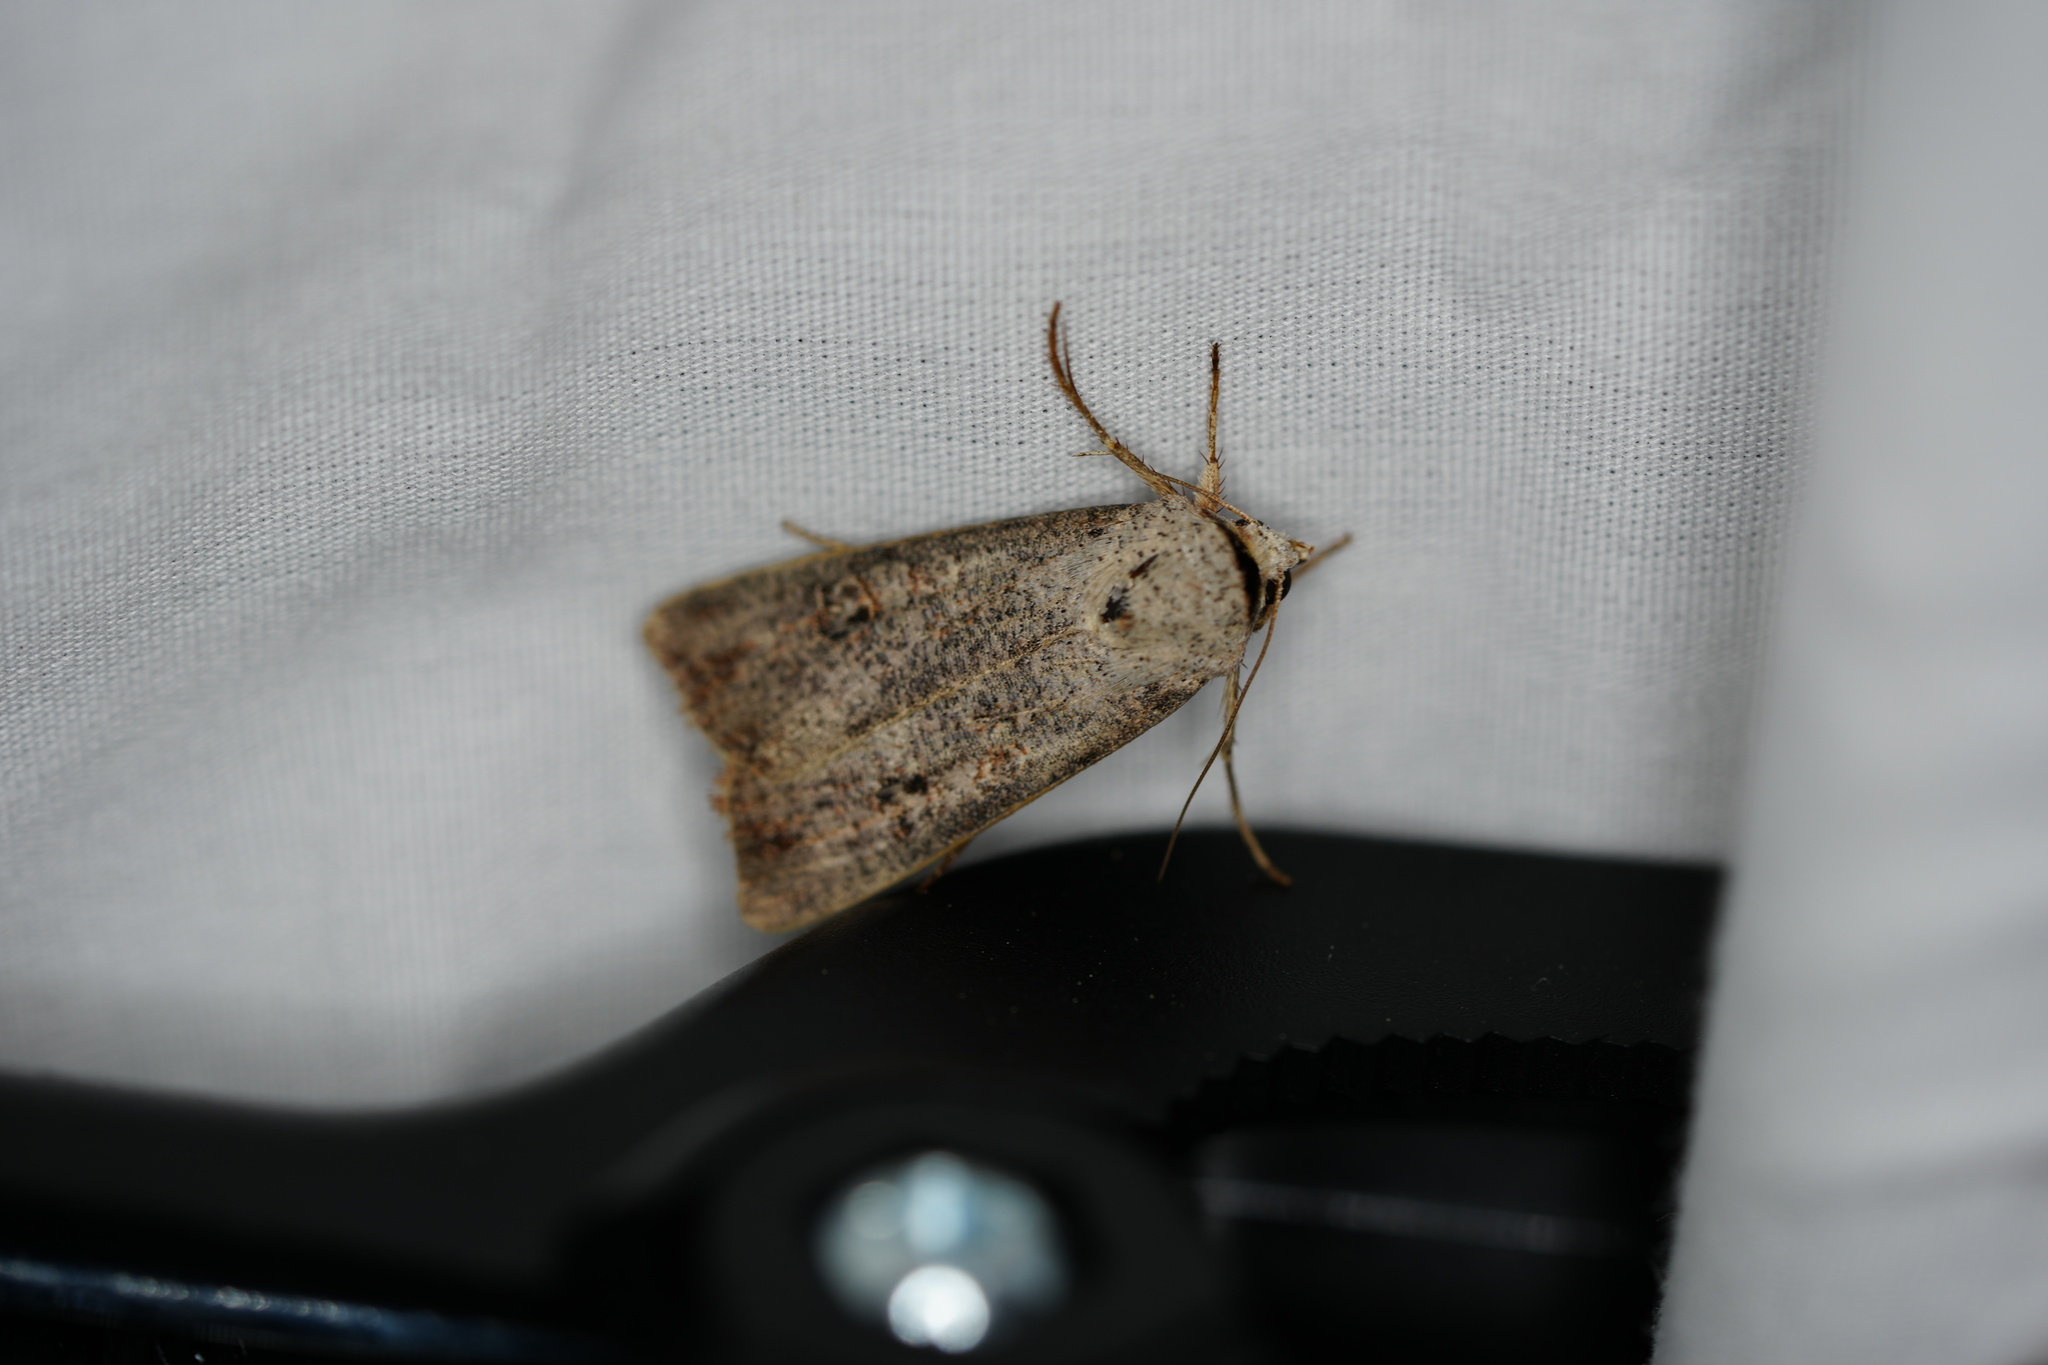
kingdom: Animalia
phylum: Arthropoda
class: Insecta
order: Lepidoptera
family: Noctuidae
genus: Anicla
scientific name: Anicla infecta
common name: Green cutworm
